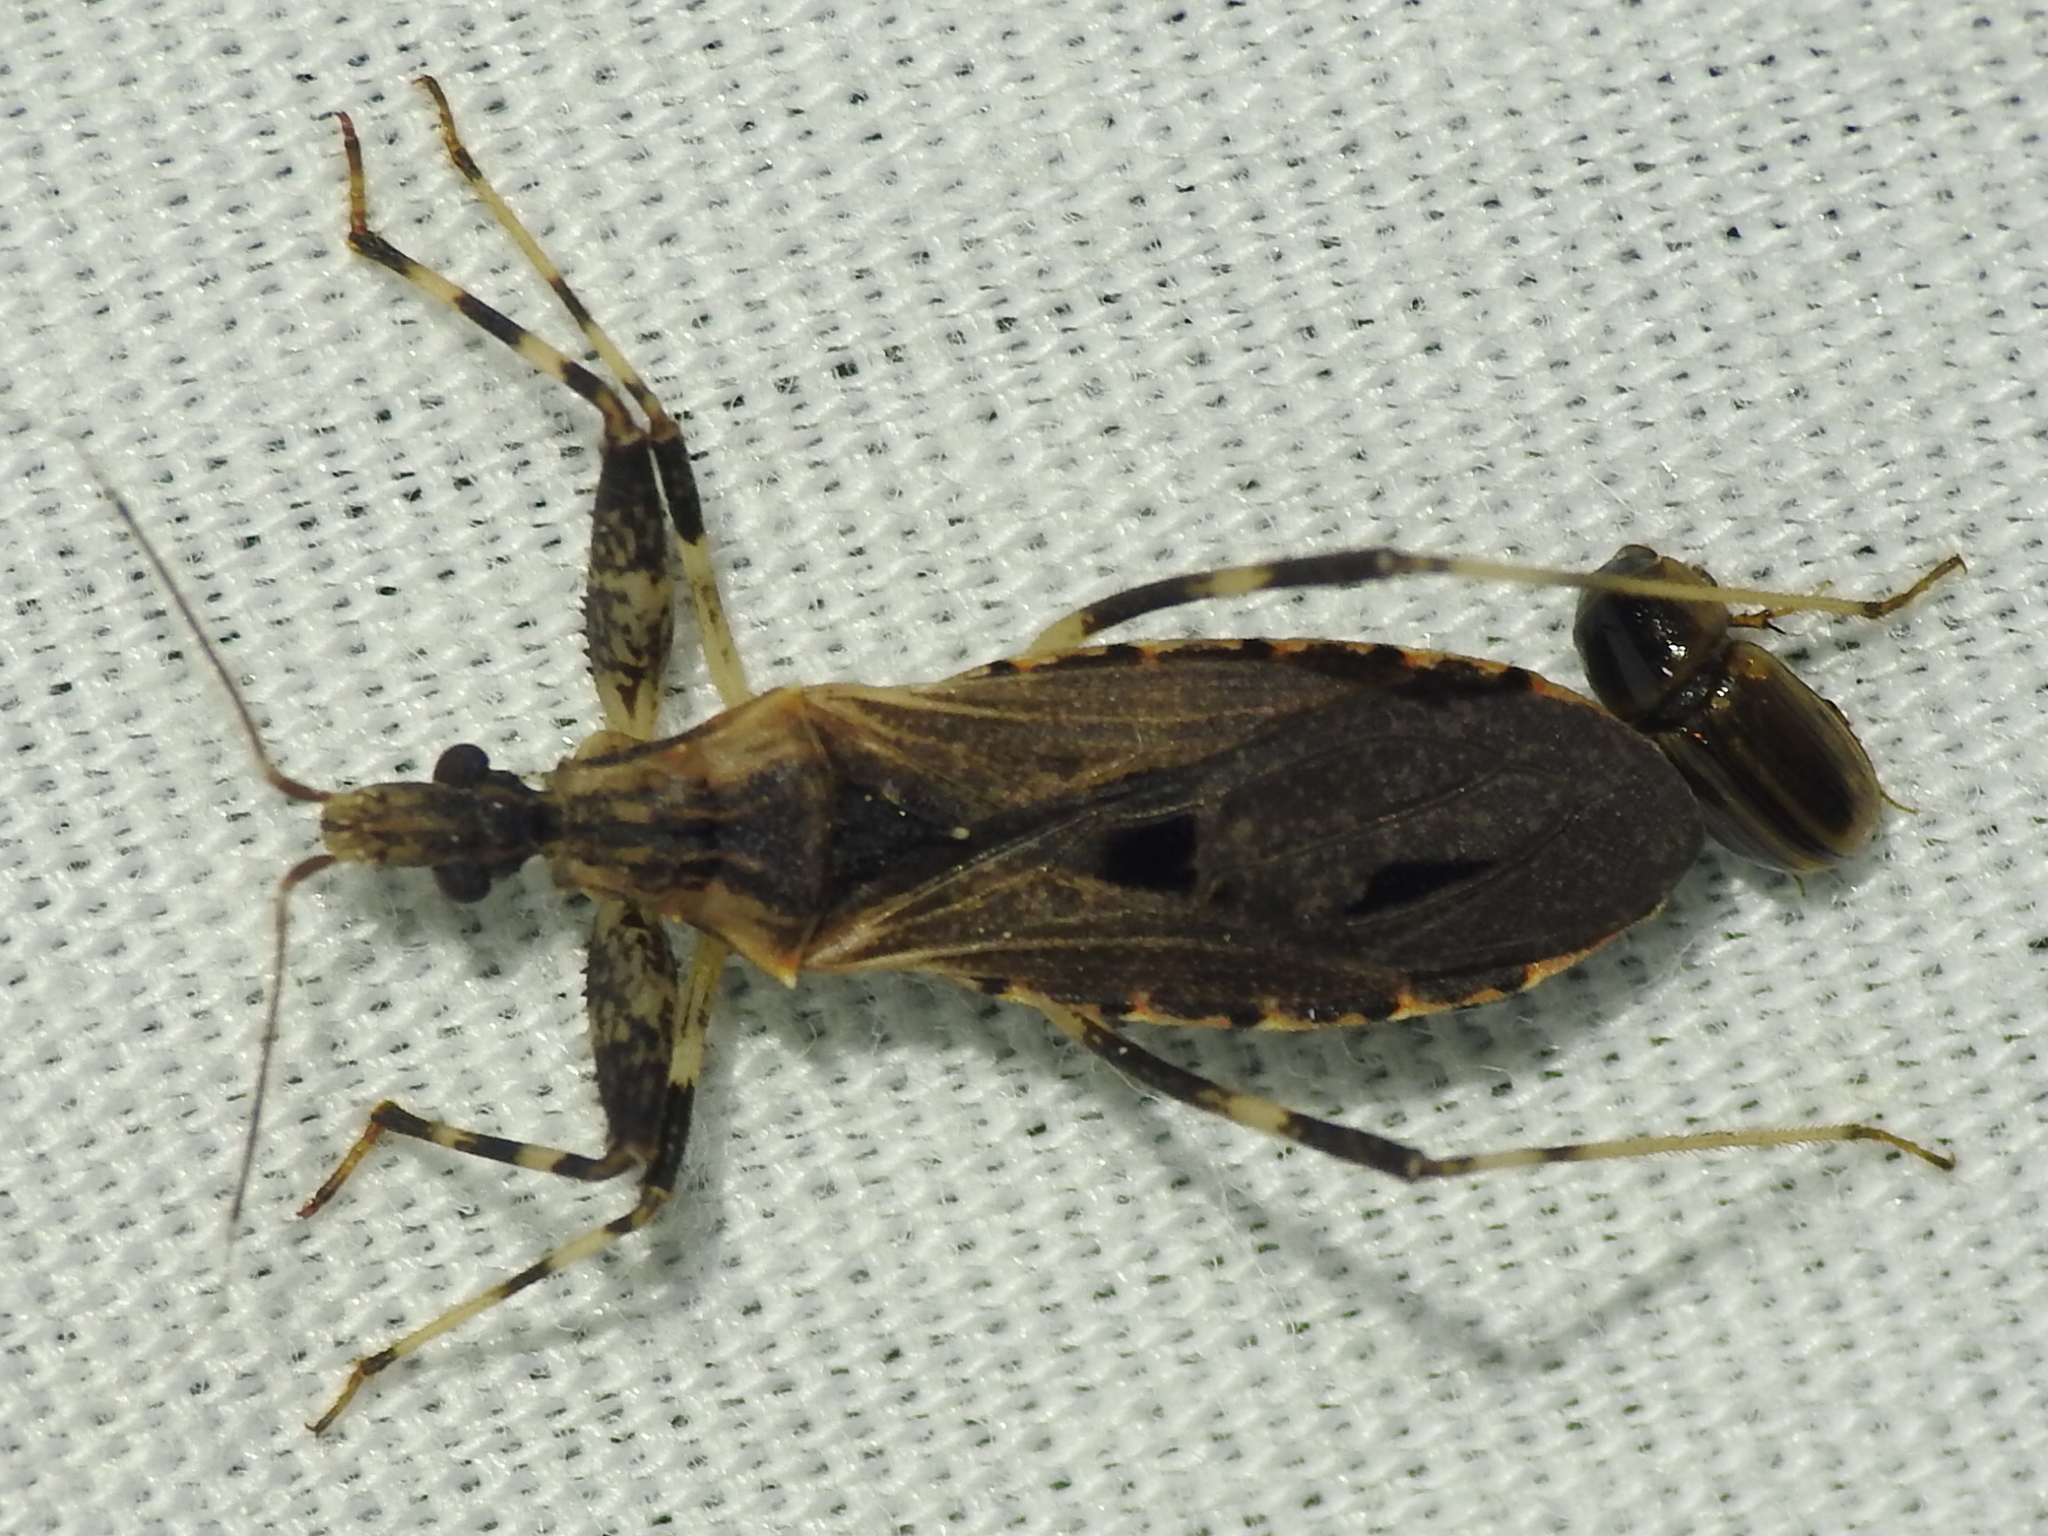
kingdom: Animalia
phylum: Arthropoda
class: Insecta
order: Hemiptera
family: Reduviidae
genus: Oncocephalus
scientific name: Oncocephalus geniculatus
